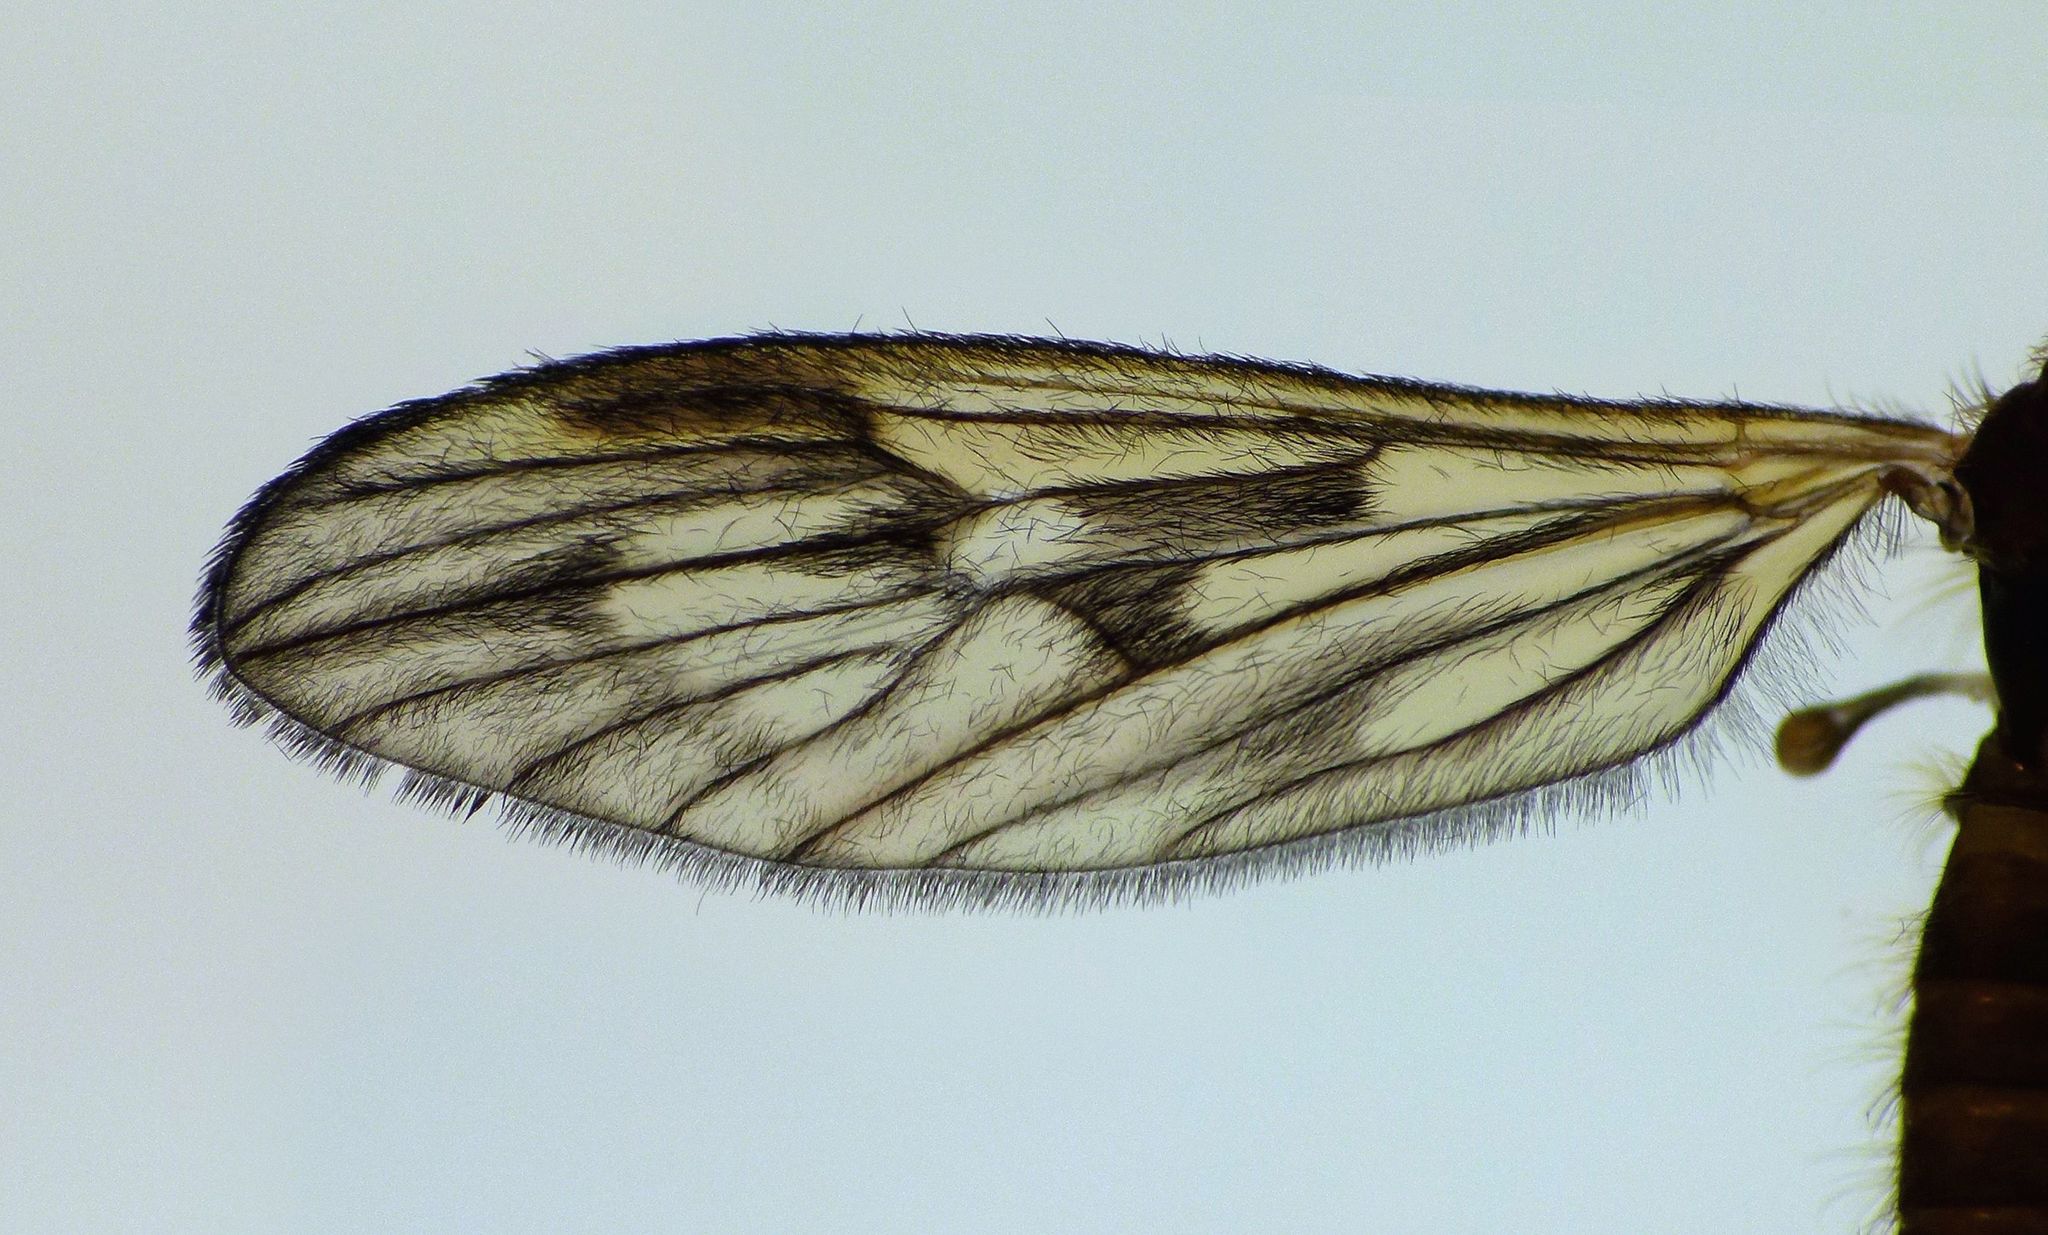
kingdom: Animalia
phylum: Arthropoda
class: Insecta
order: Diptera
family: Limoniidae
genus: Amphineurus
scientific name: Amphineurus fatuus
